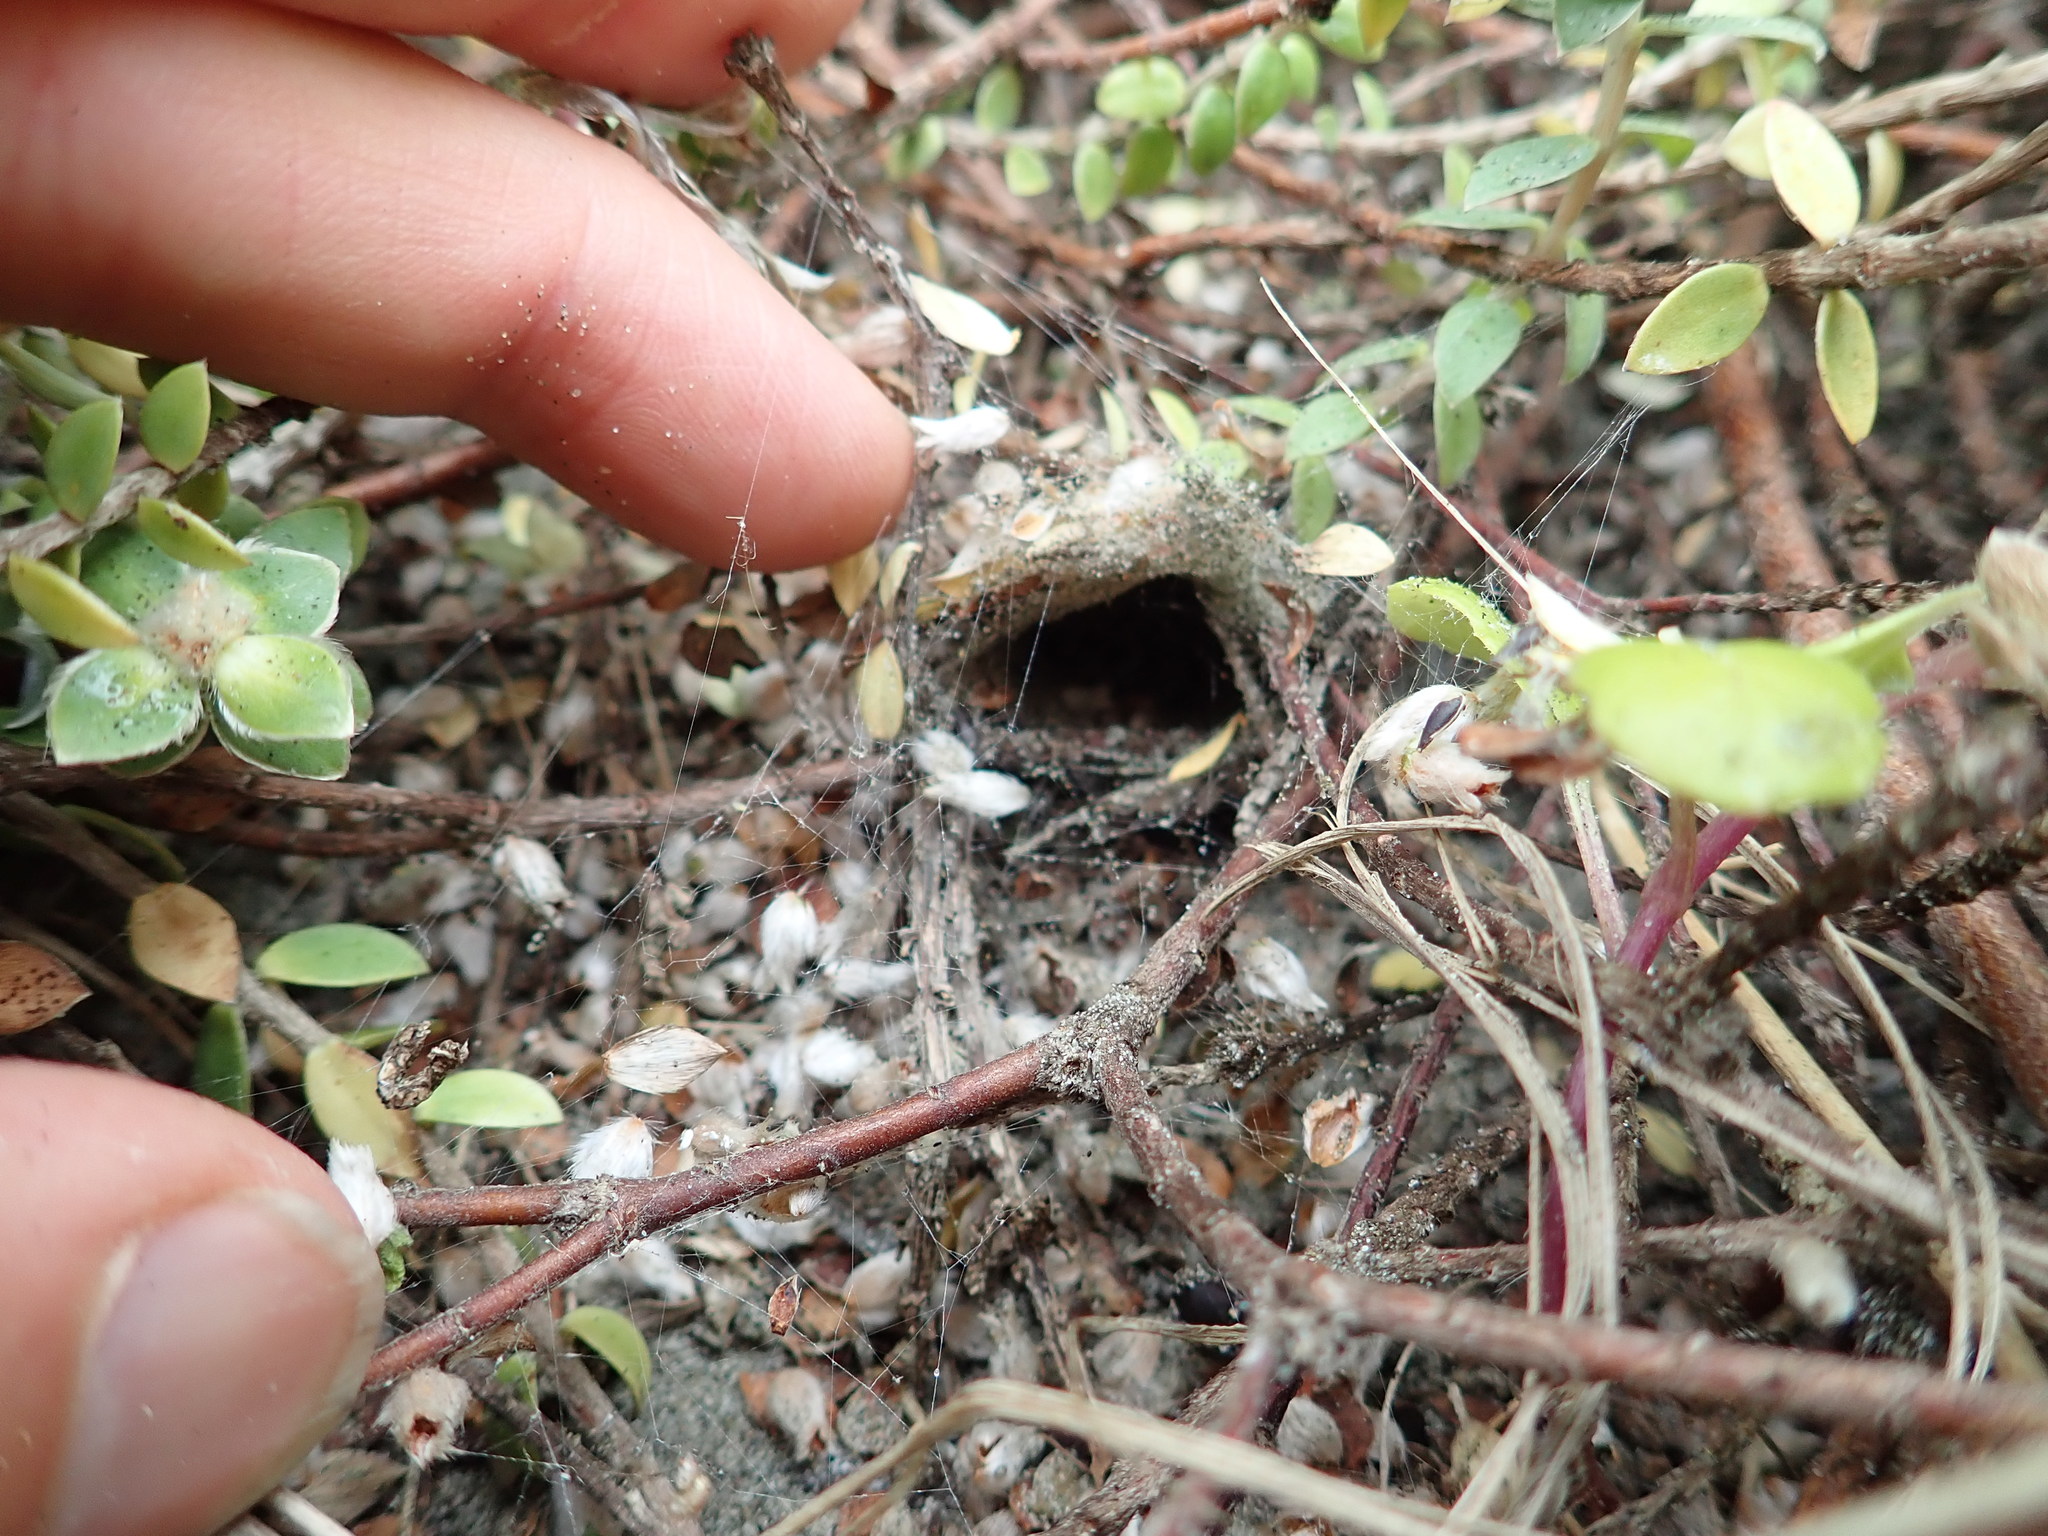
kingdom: Animalia
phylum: Arthropoda
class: Arachnida
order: Araneae
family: Theridiidae
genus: Latrodectus
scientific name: Latrodectus katipo
